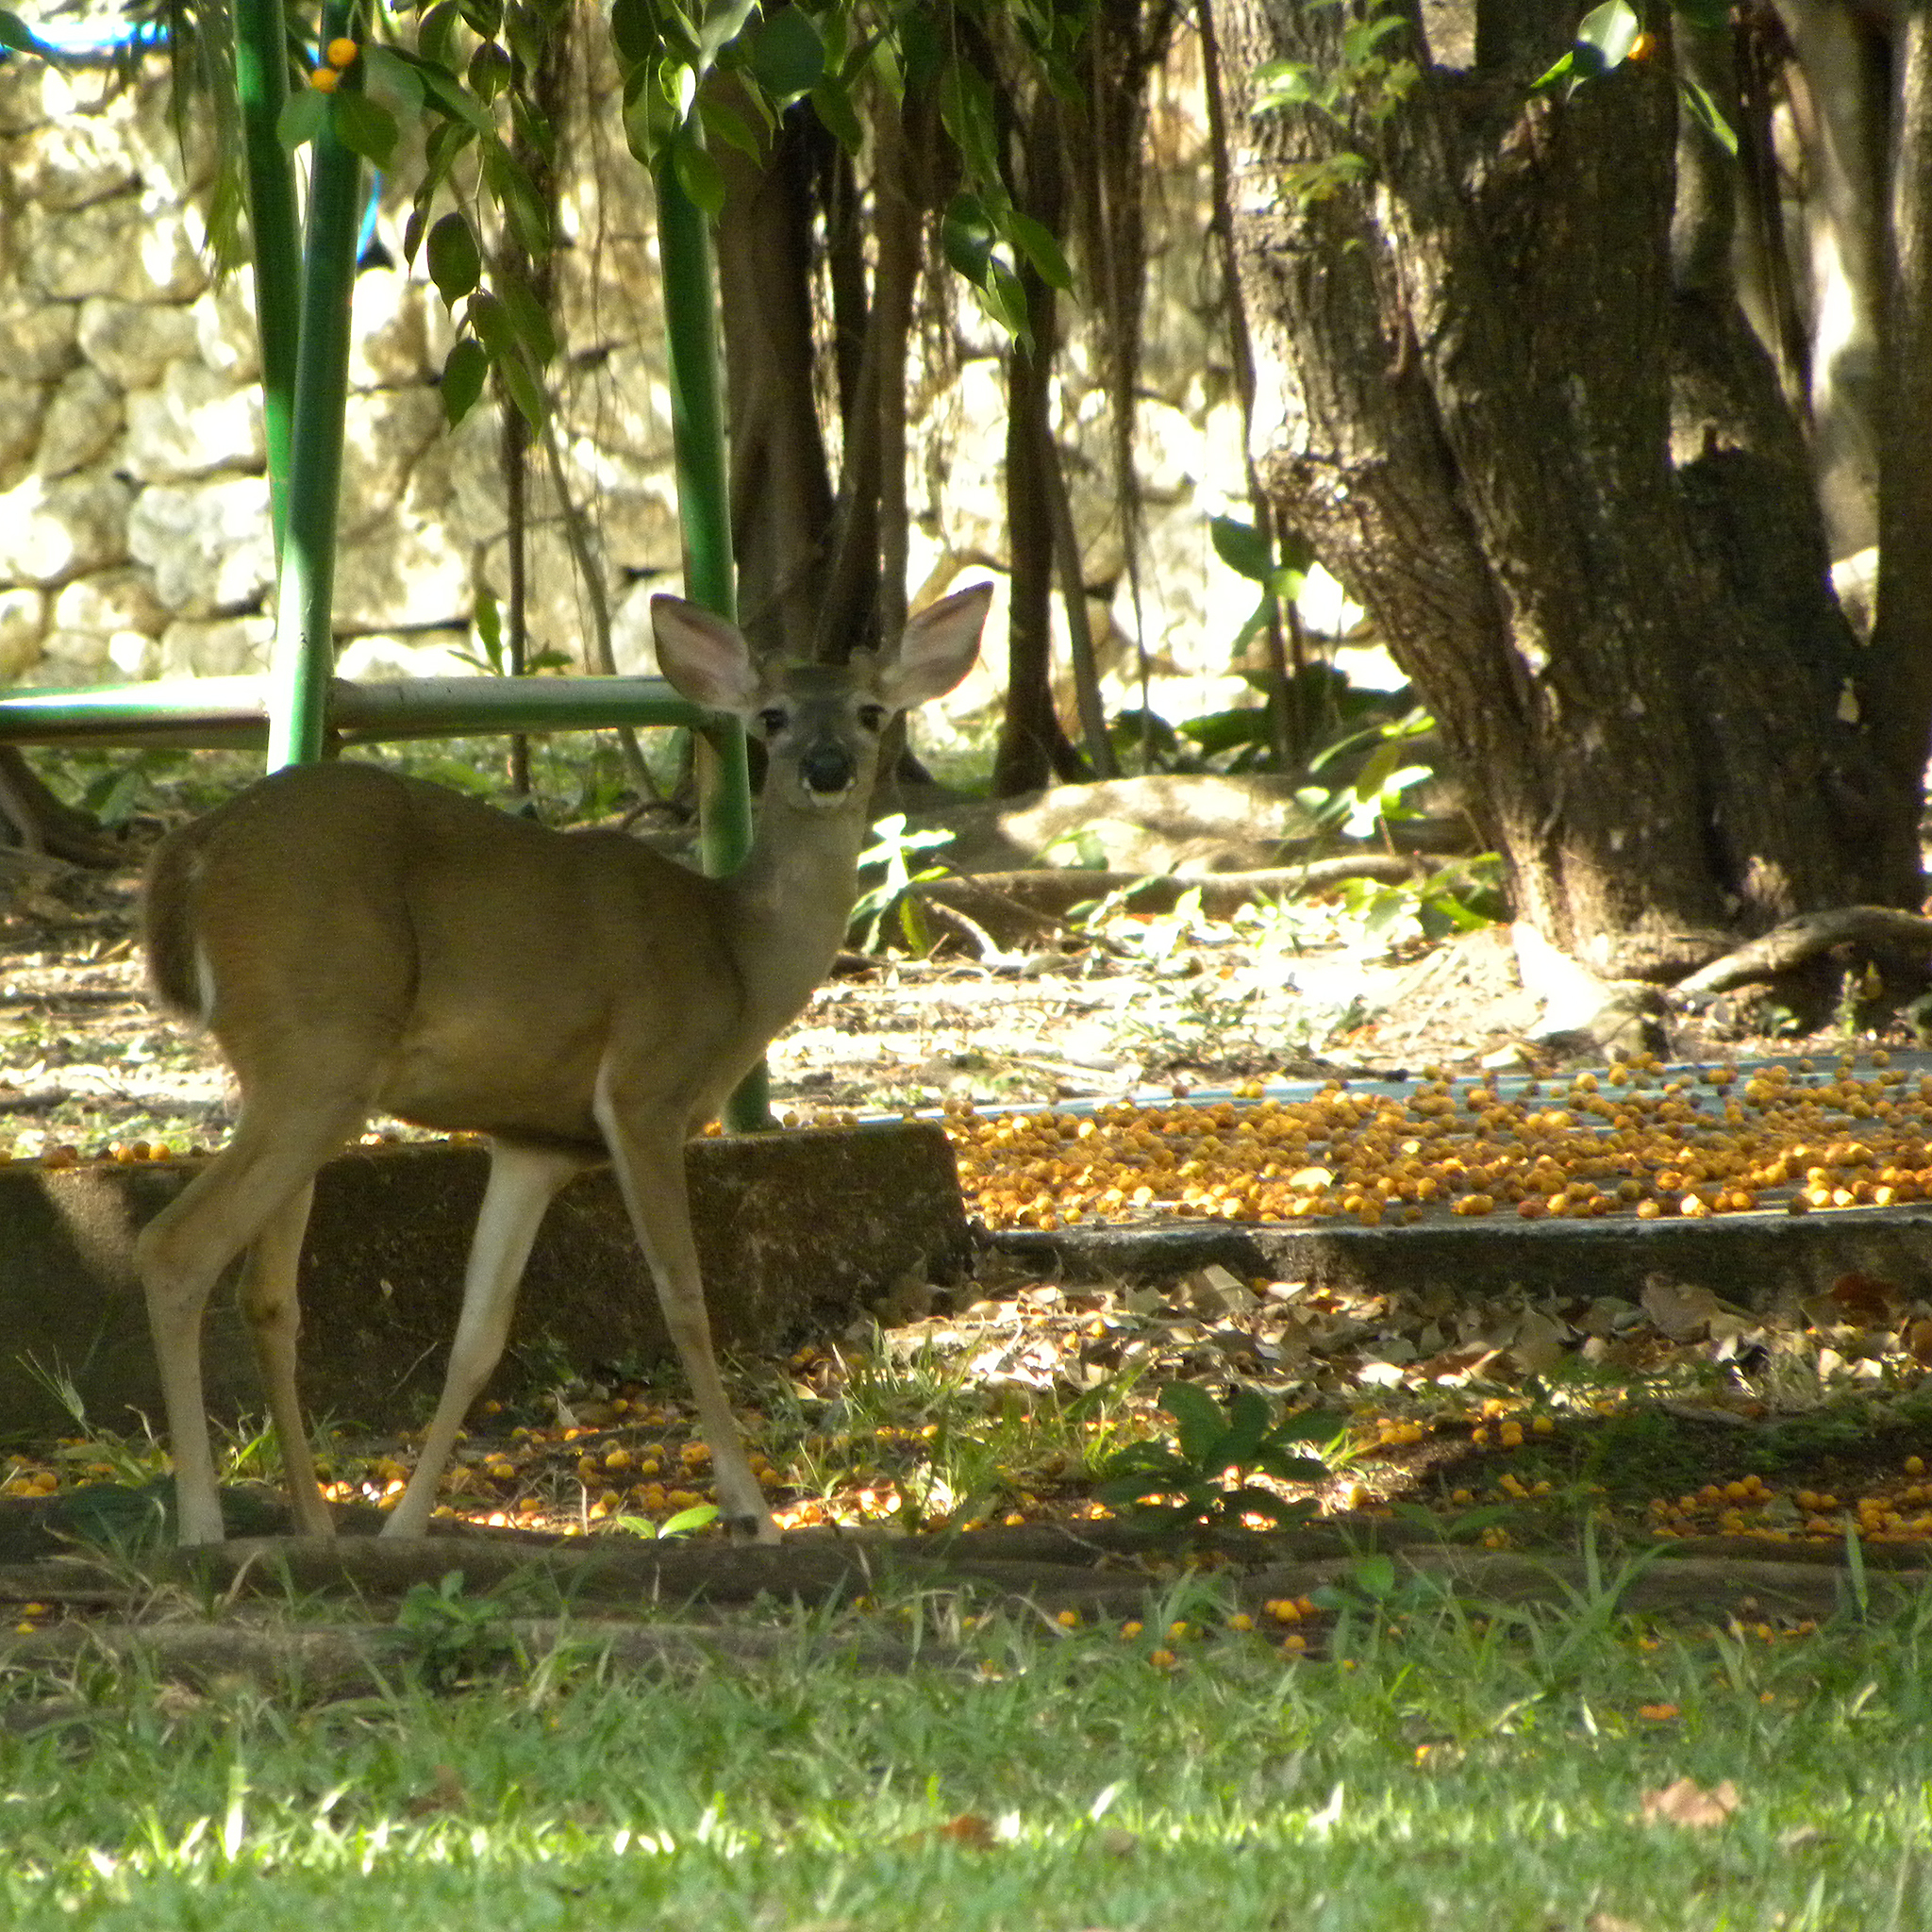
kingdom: Animalia
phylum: Chordata
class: Mammalia
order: Artiodactyla
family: Cervidae
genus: Odocoileus
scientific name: Odocoileus virginianus
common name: White-tailed deer
